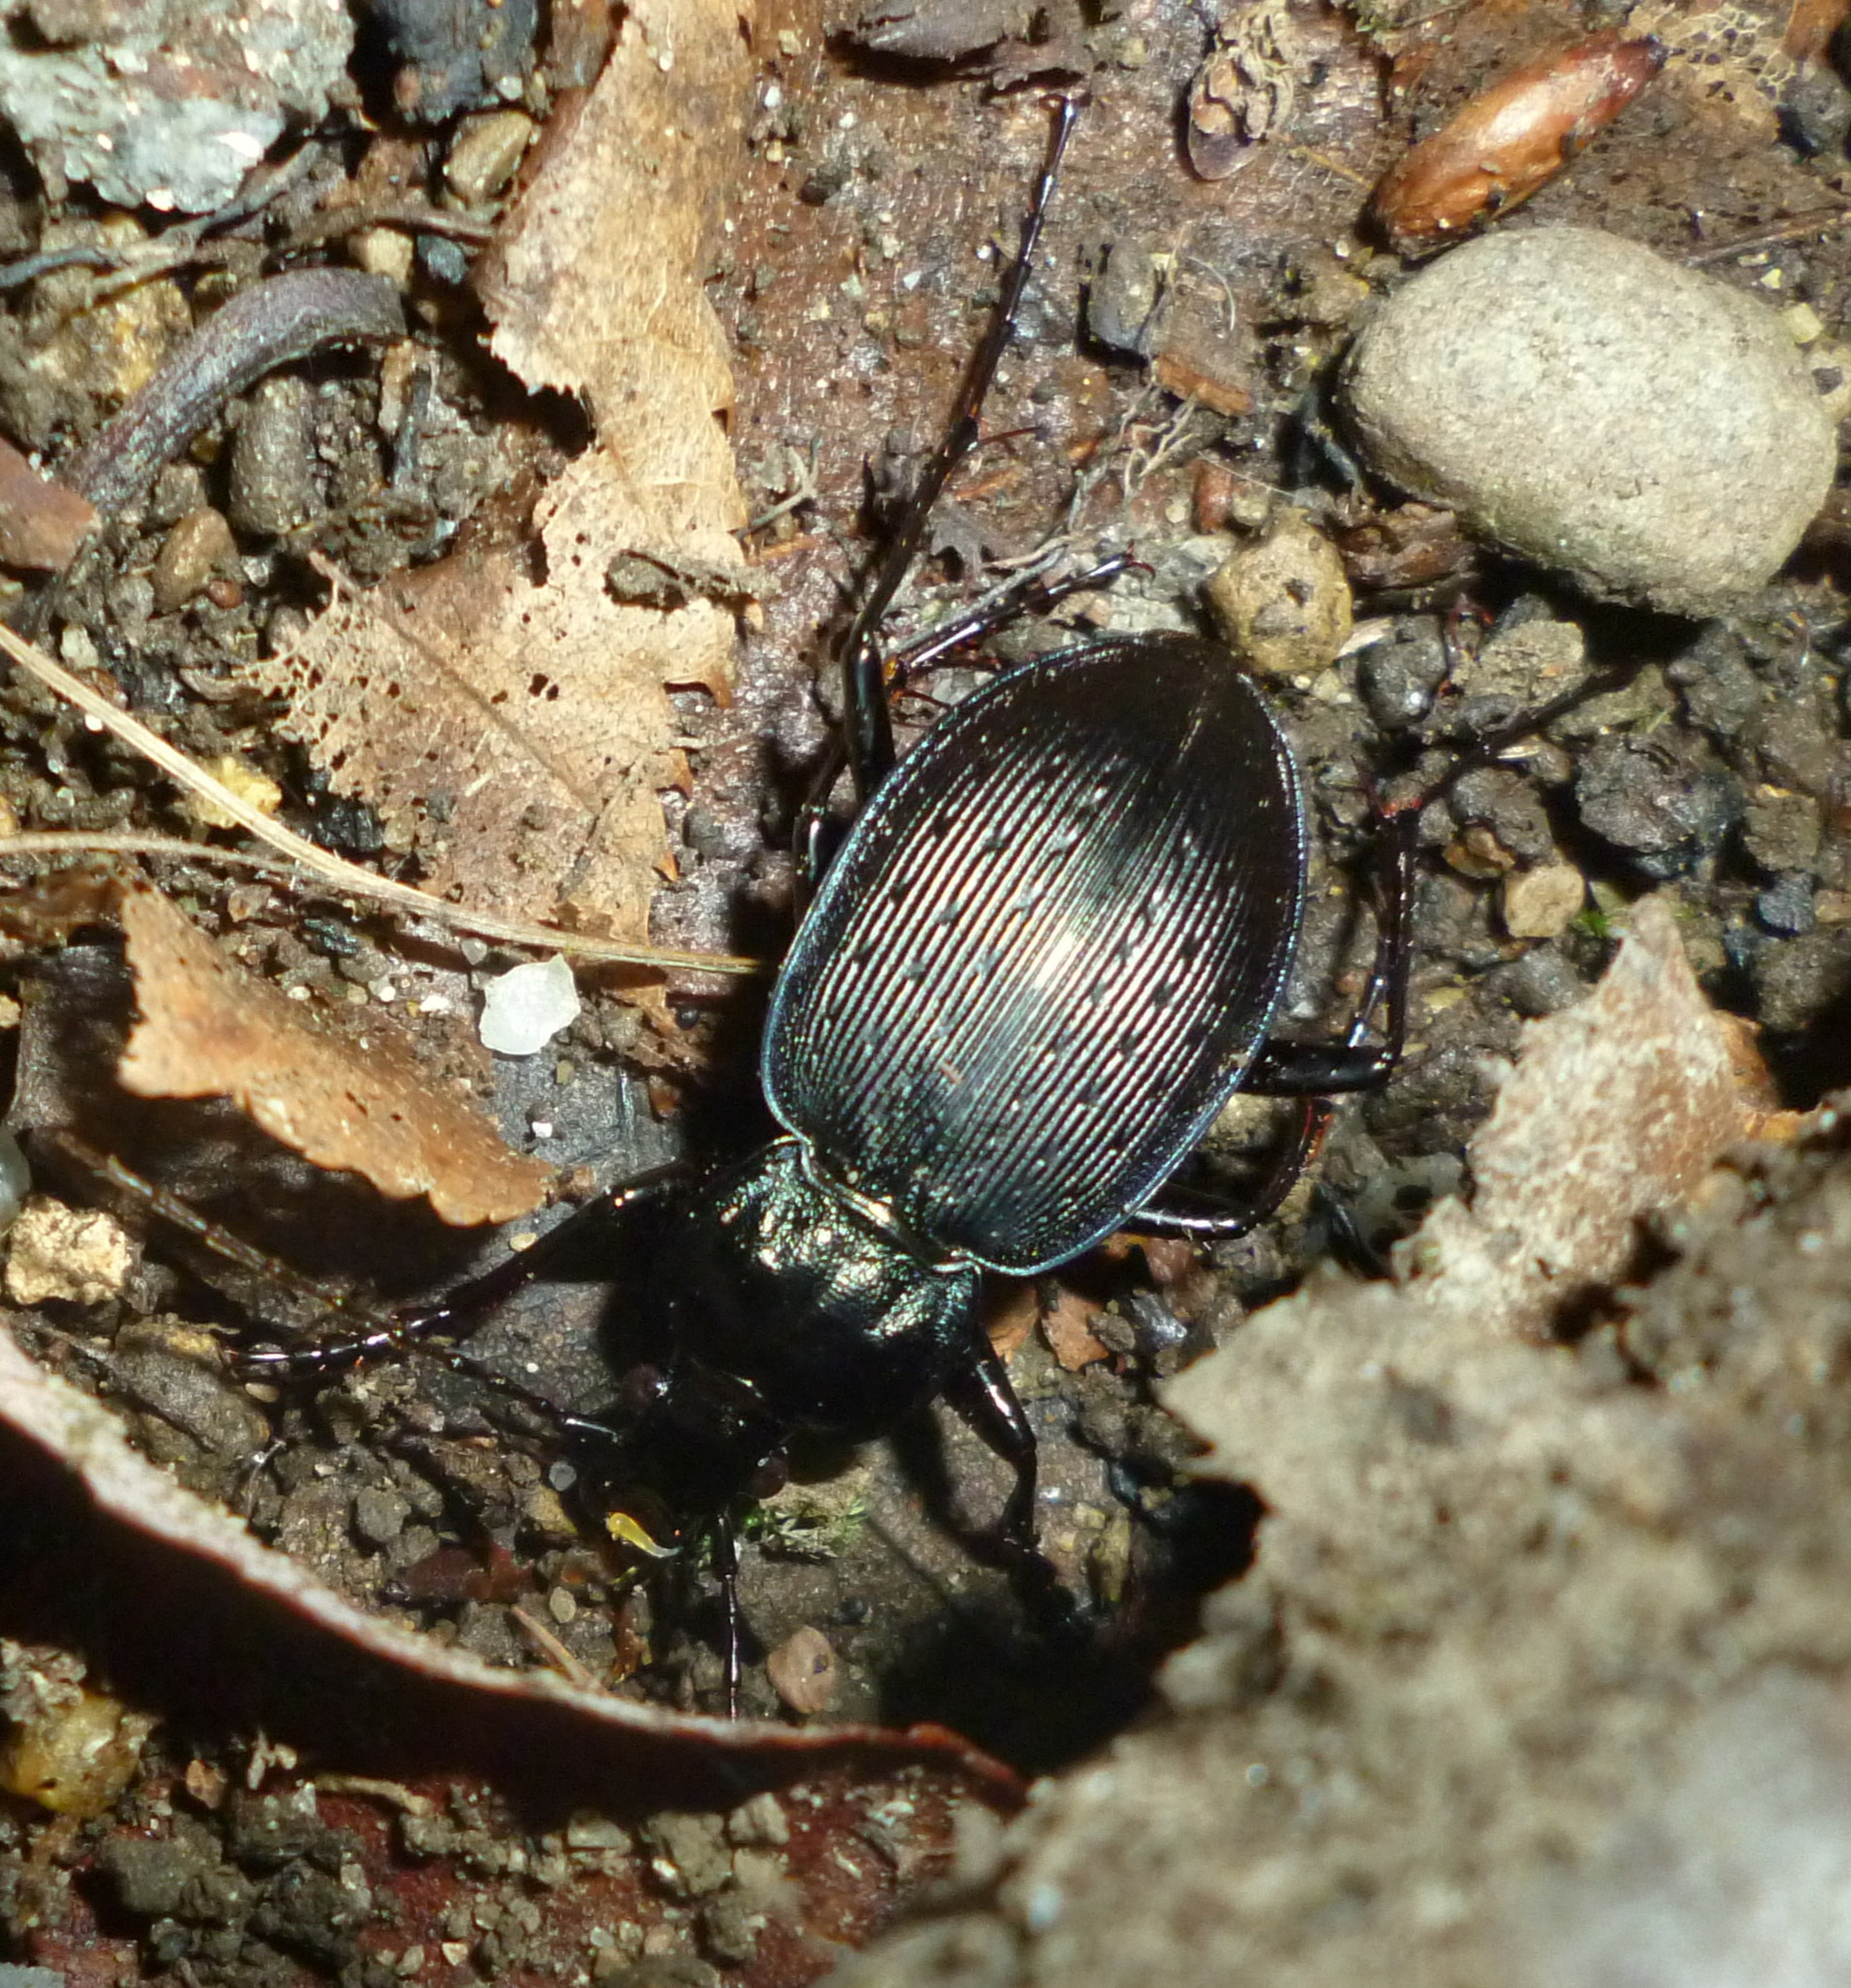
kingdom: Animalia
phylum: Arthropoda
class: Insecta
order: Coleoptera
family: Carabidae
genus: Carabus
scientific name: Carabus goryi
